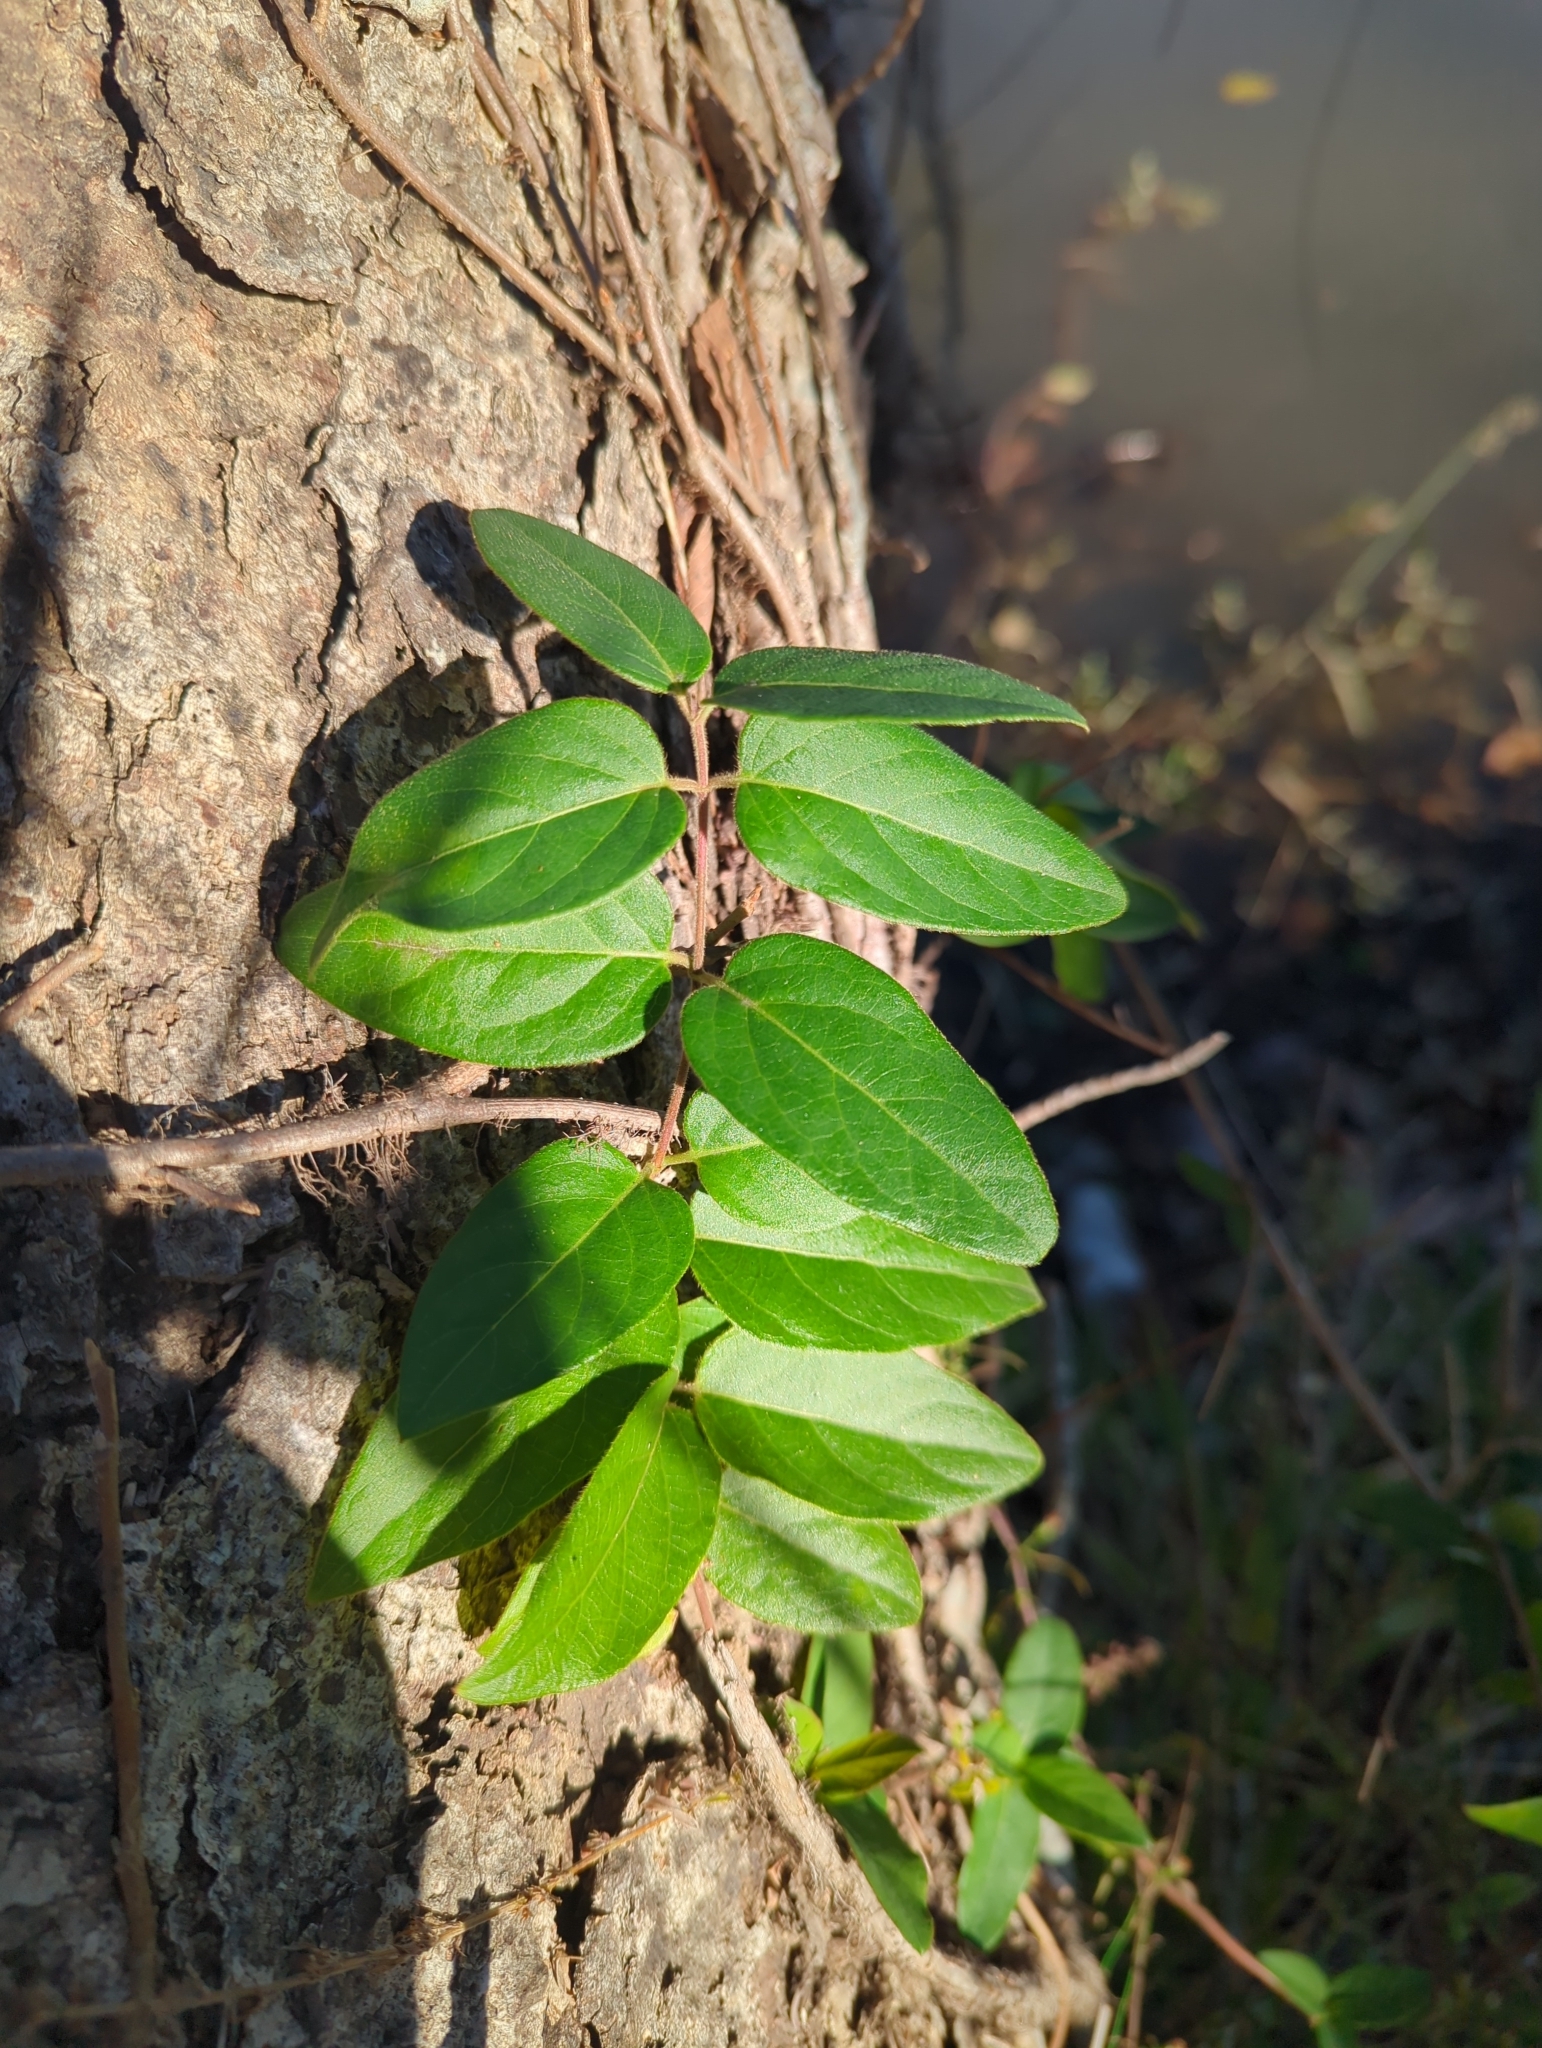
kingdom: Plantae
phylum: Tracheophyta
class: Magnoliopsida
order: Dipsacales
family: Caprifoliaceae
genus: Lonicera
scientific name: Lonicera japonica
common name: Japanese honeysuckle
